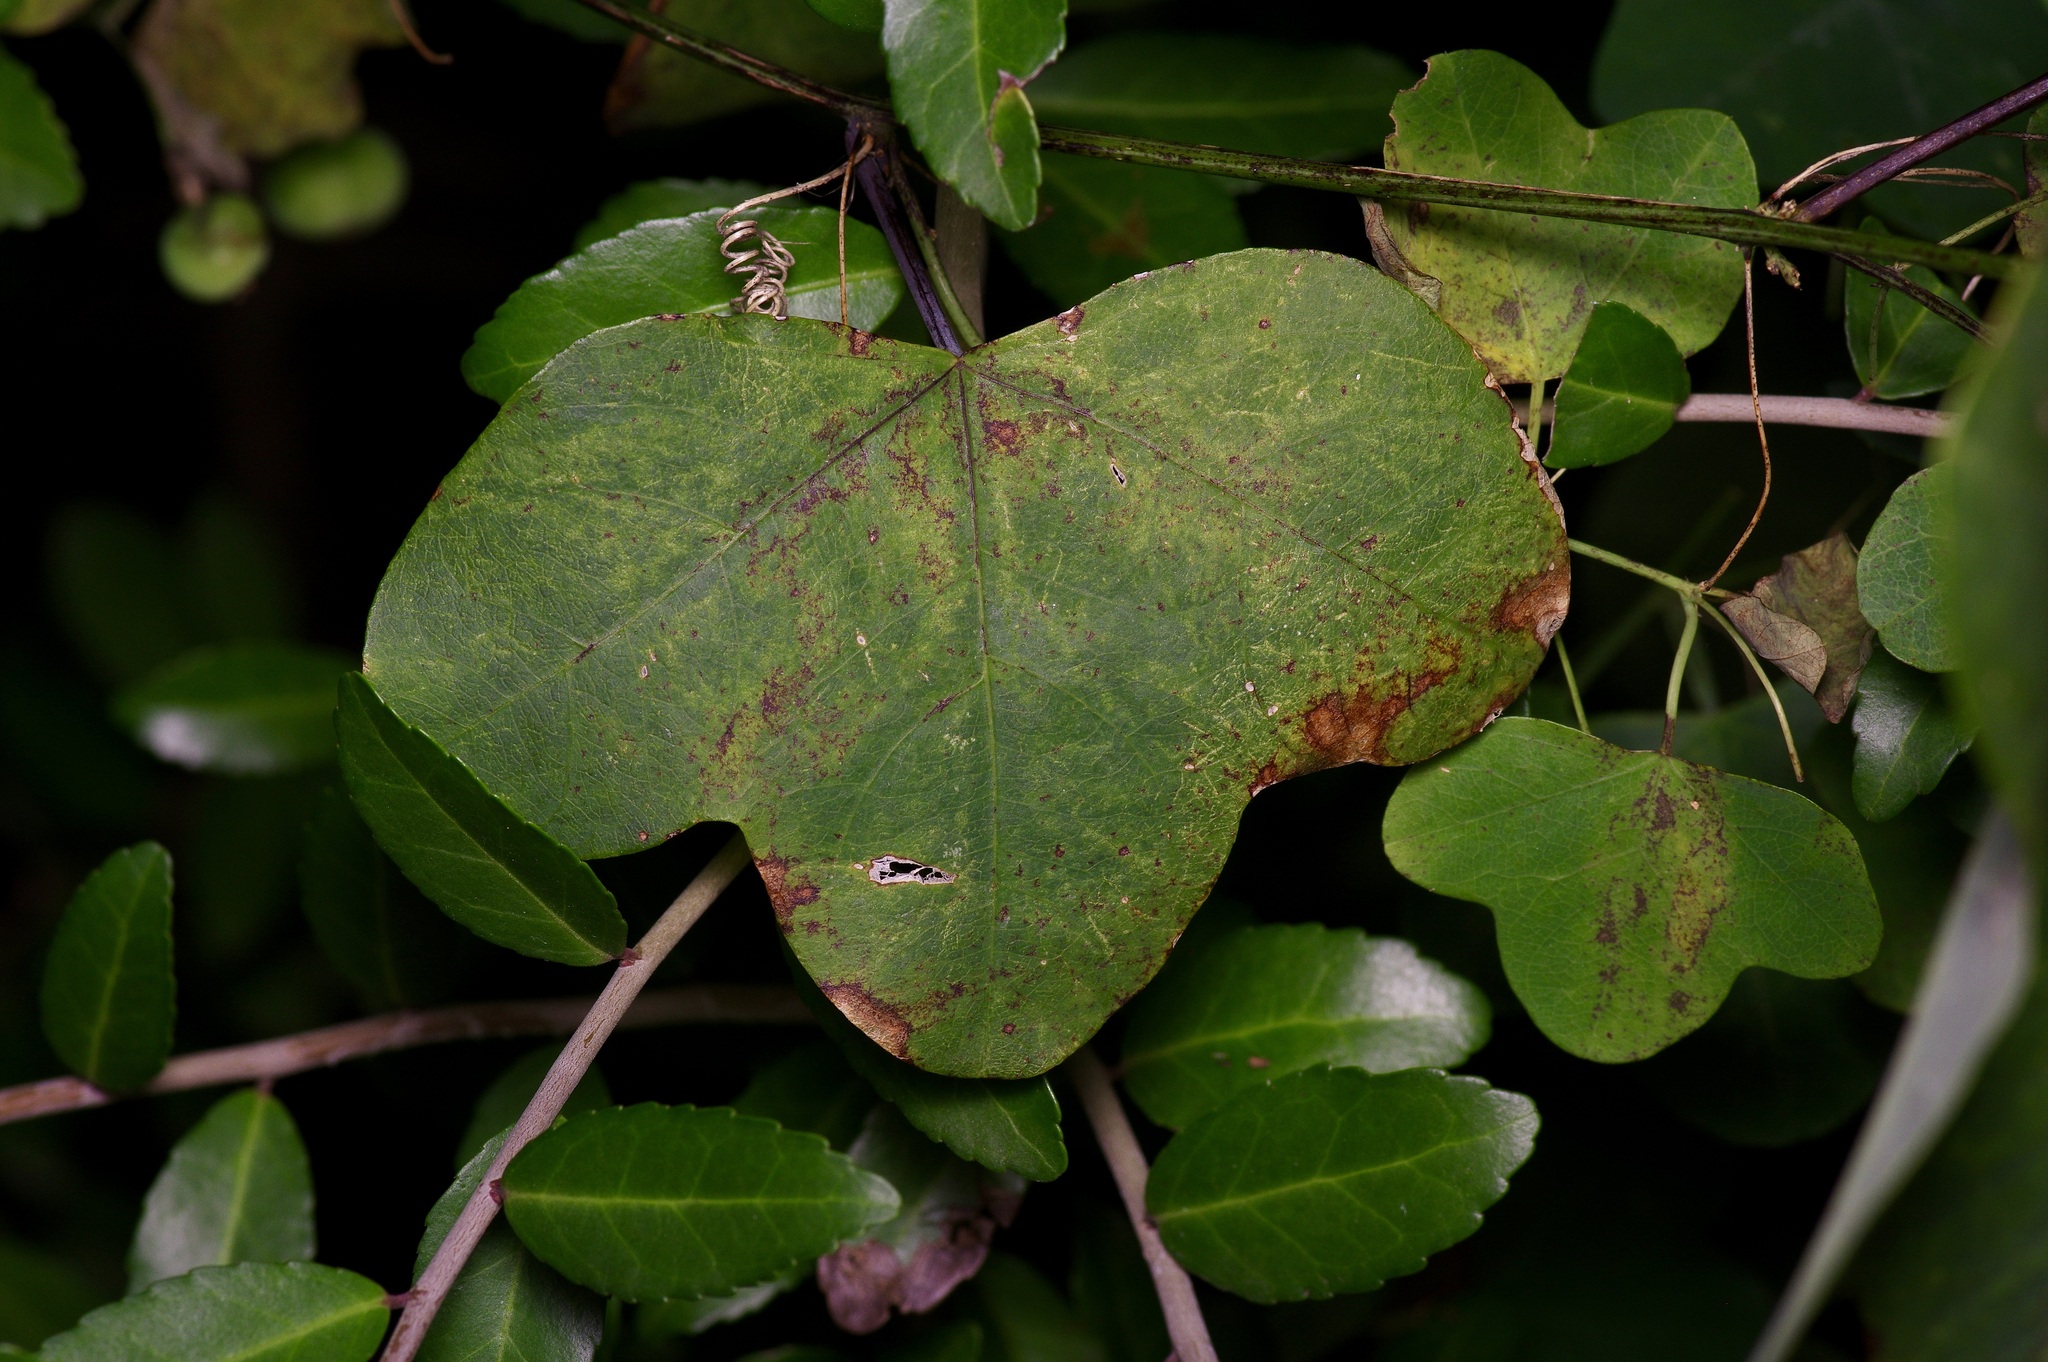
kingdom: Plantae
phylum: Tracheophyta
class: Magnoliopsida
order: Malpighiales
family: Passifloraceae
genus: Passiflora
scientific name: Passiflora lutea
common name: Yellow passionflower
